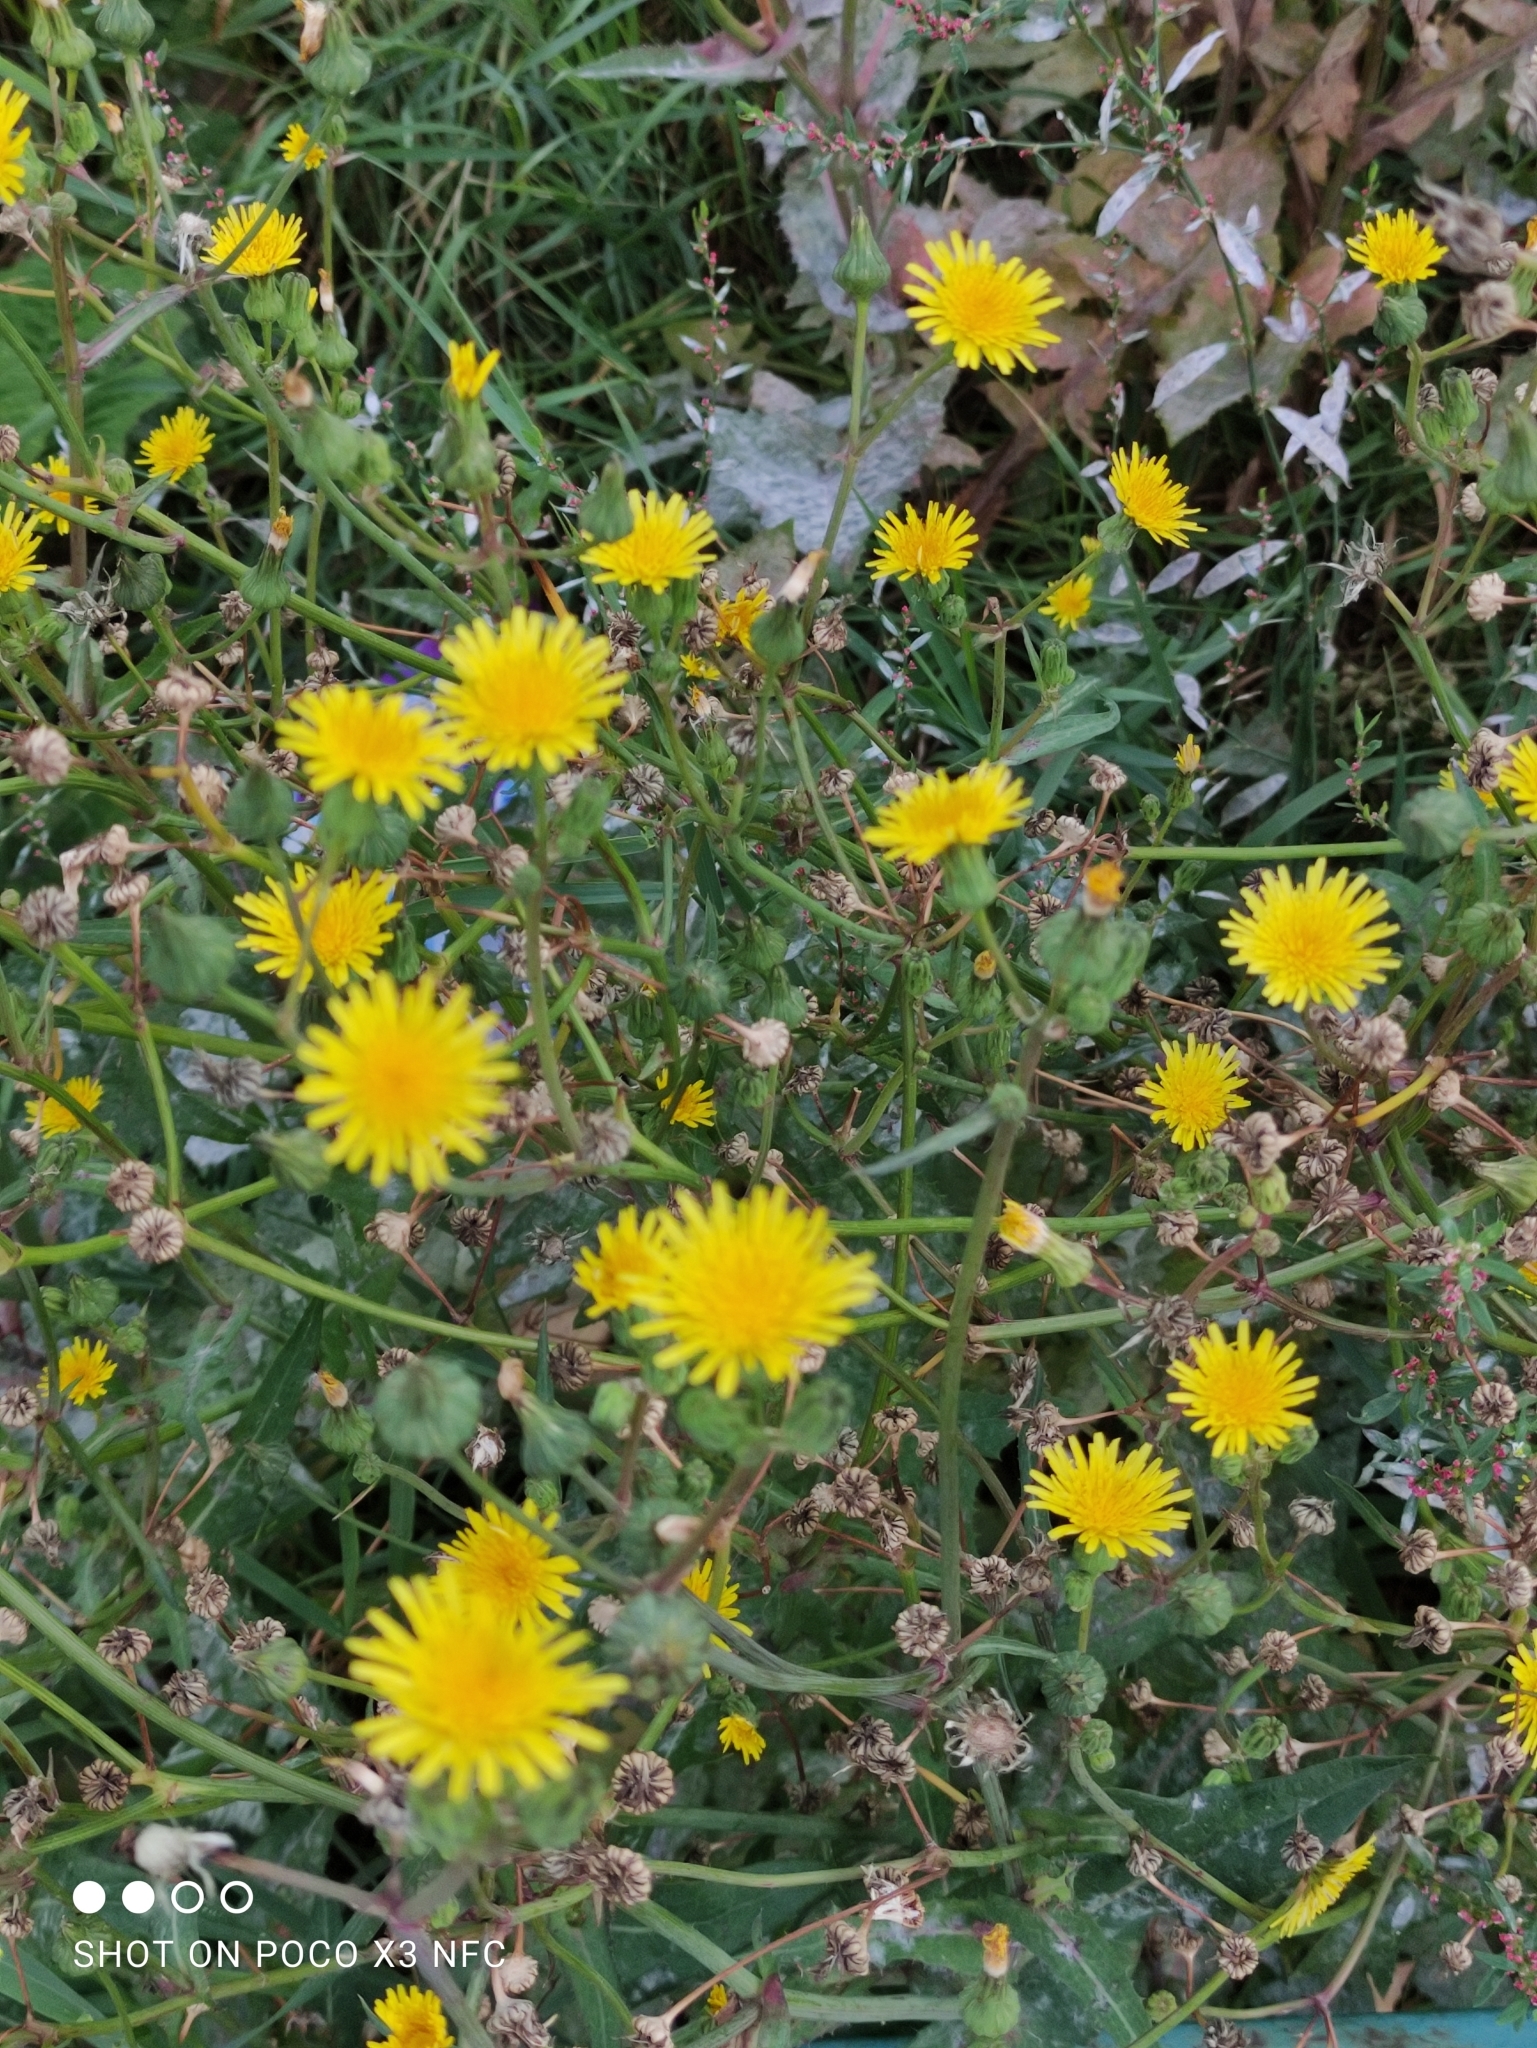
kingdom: Plantae
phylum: Tracheophyta
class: Magnoliopsida
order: Asterales
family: Asteraceae
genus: Sonchus
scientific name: Sonchus oleraceus
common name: Common sowthistle
